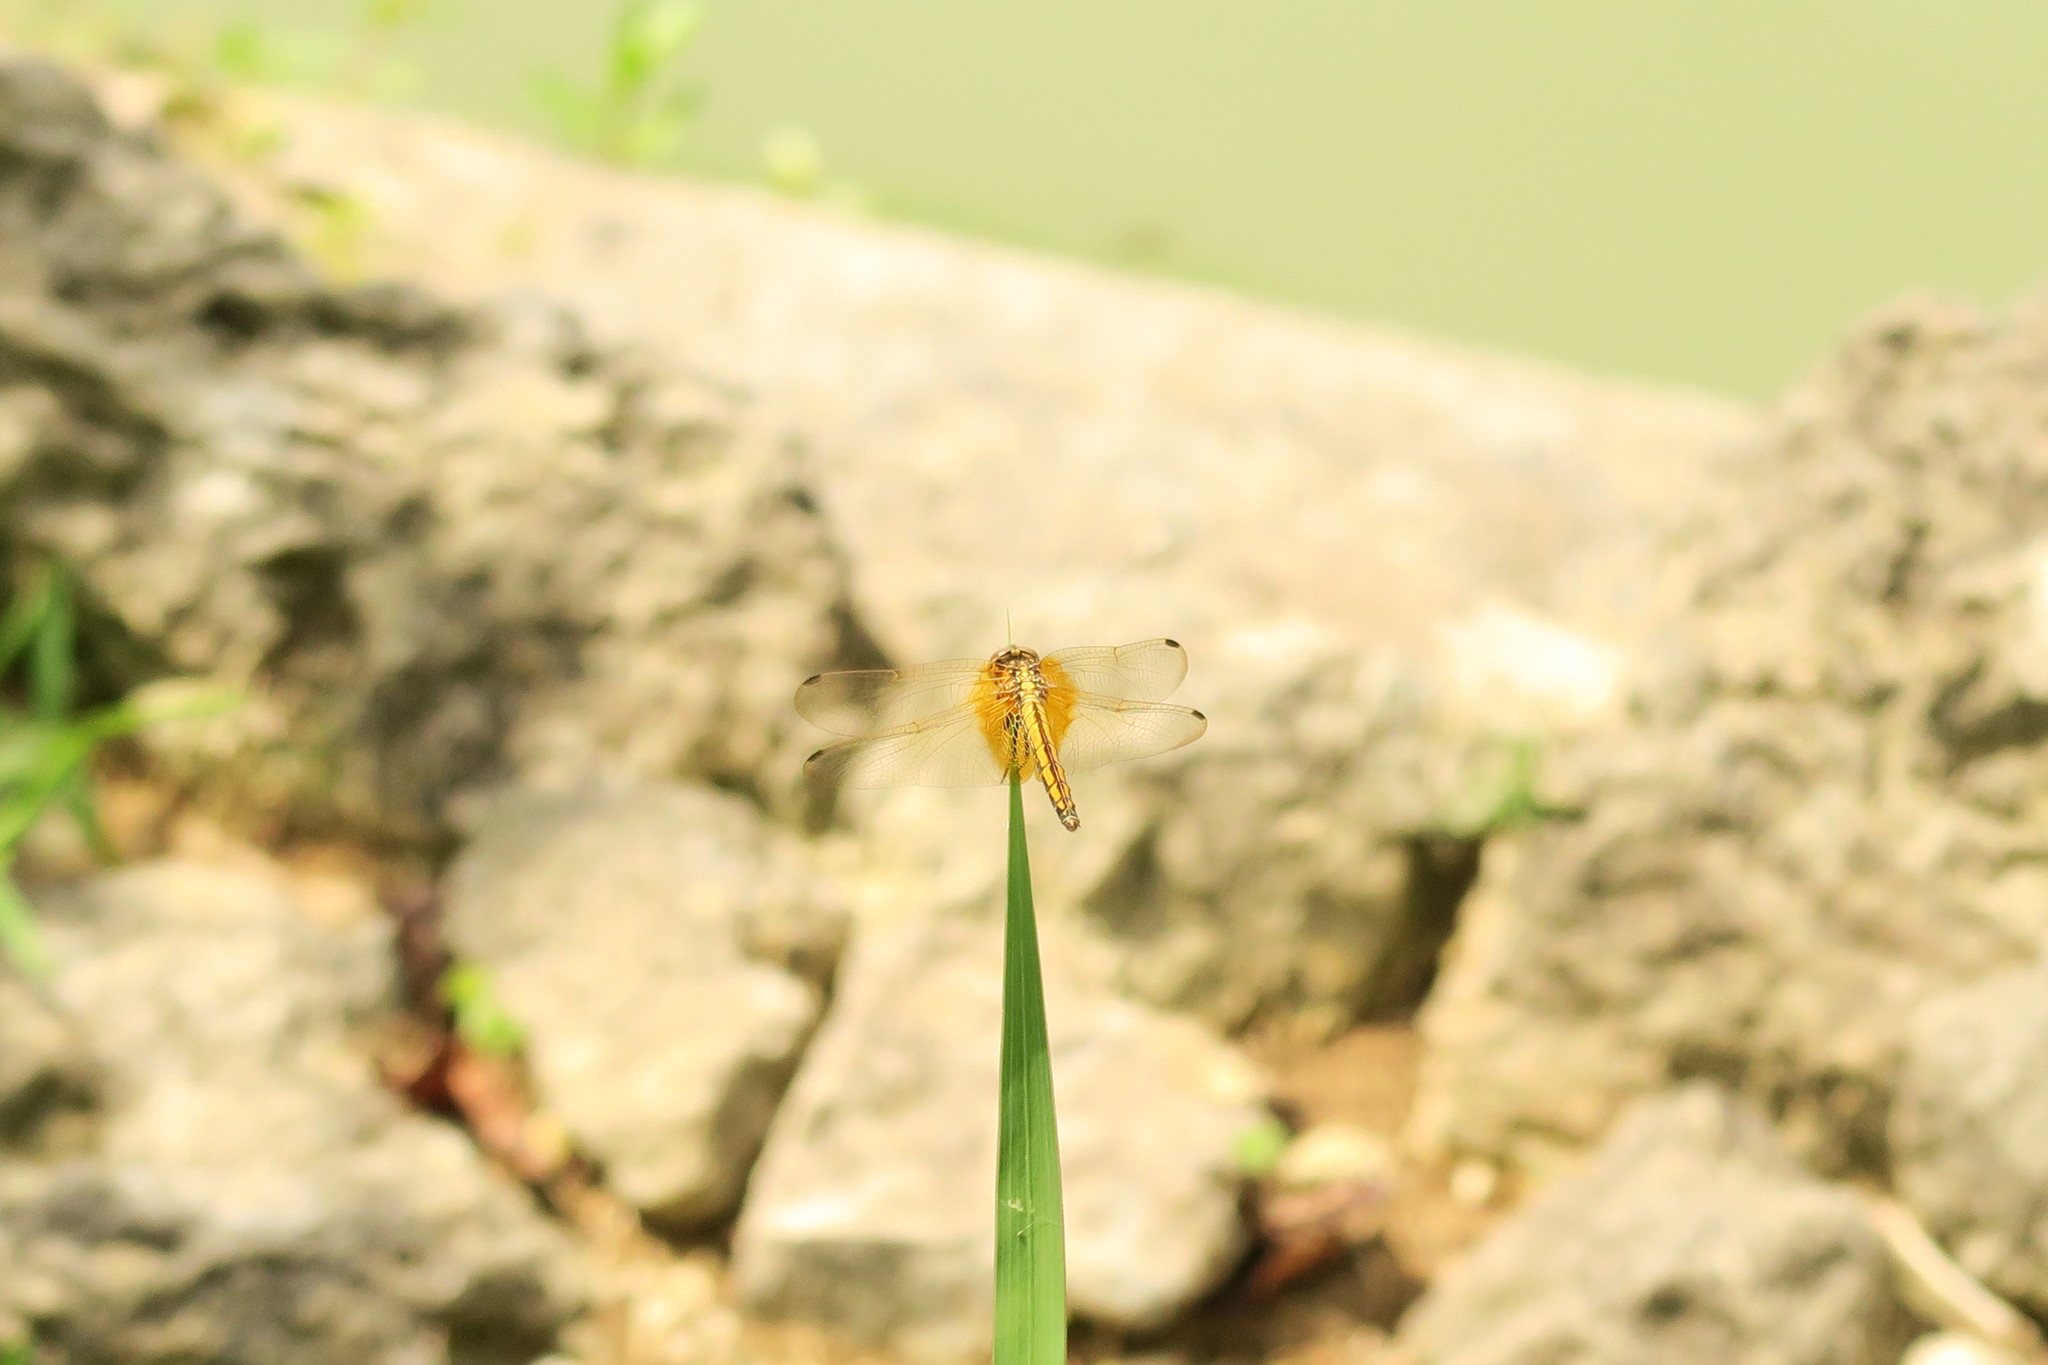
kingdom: Animalia
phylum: Arthropoda
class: Insecta
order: Odonata
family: Libellulidae
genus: Trithemis
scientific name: Trithemis aurora
